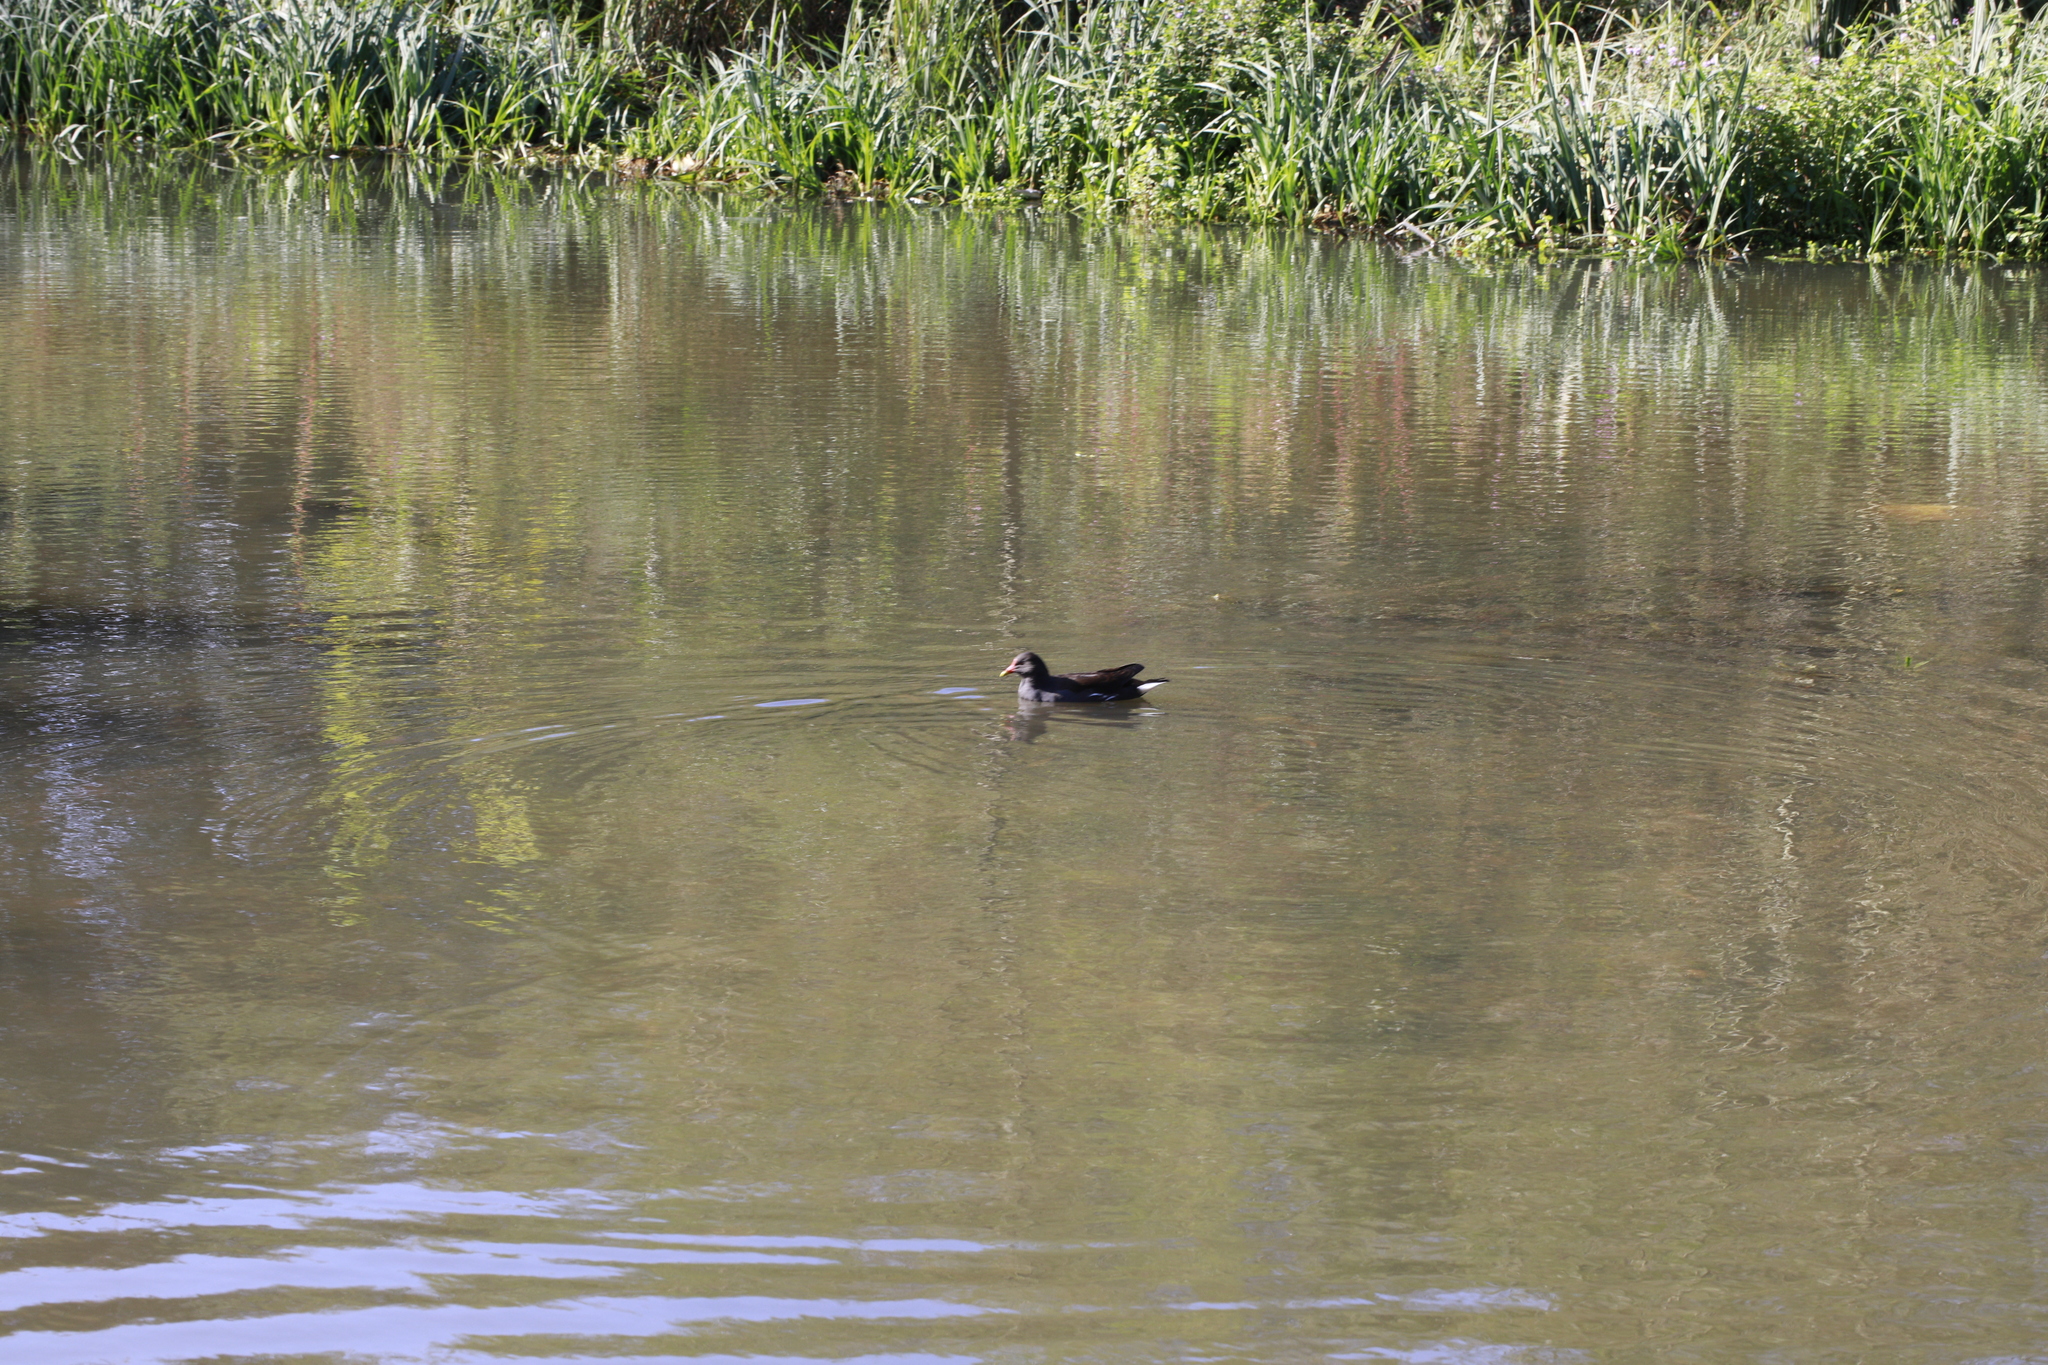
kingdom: Animalia
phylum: Chordata
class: Aves
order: Gruiformes
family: Rallidae
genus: Gallinula
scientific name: Gallinula chloropus
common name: Common moorhen
